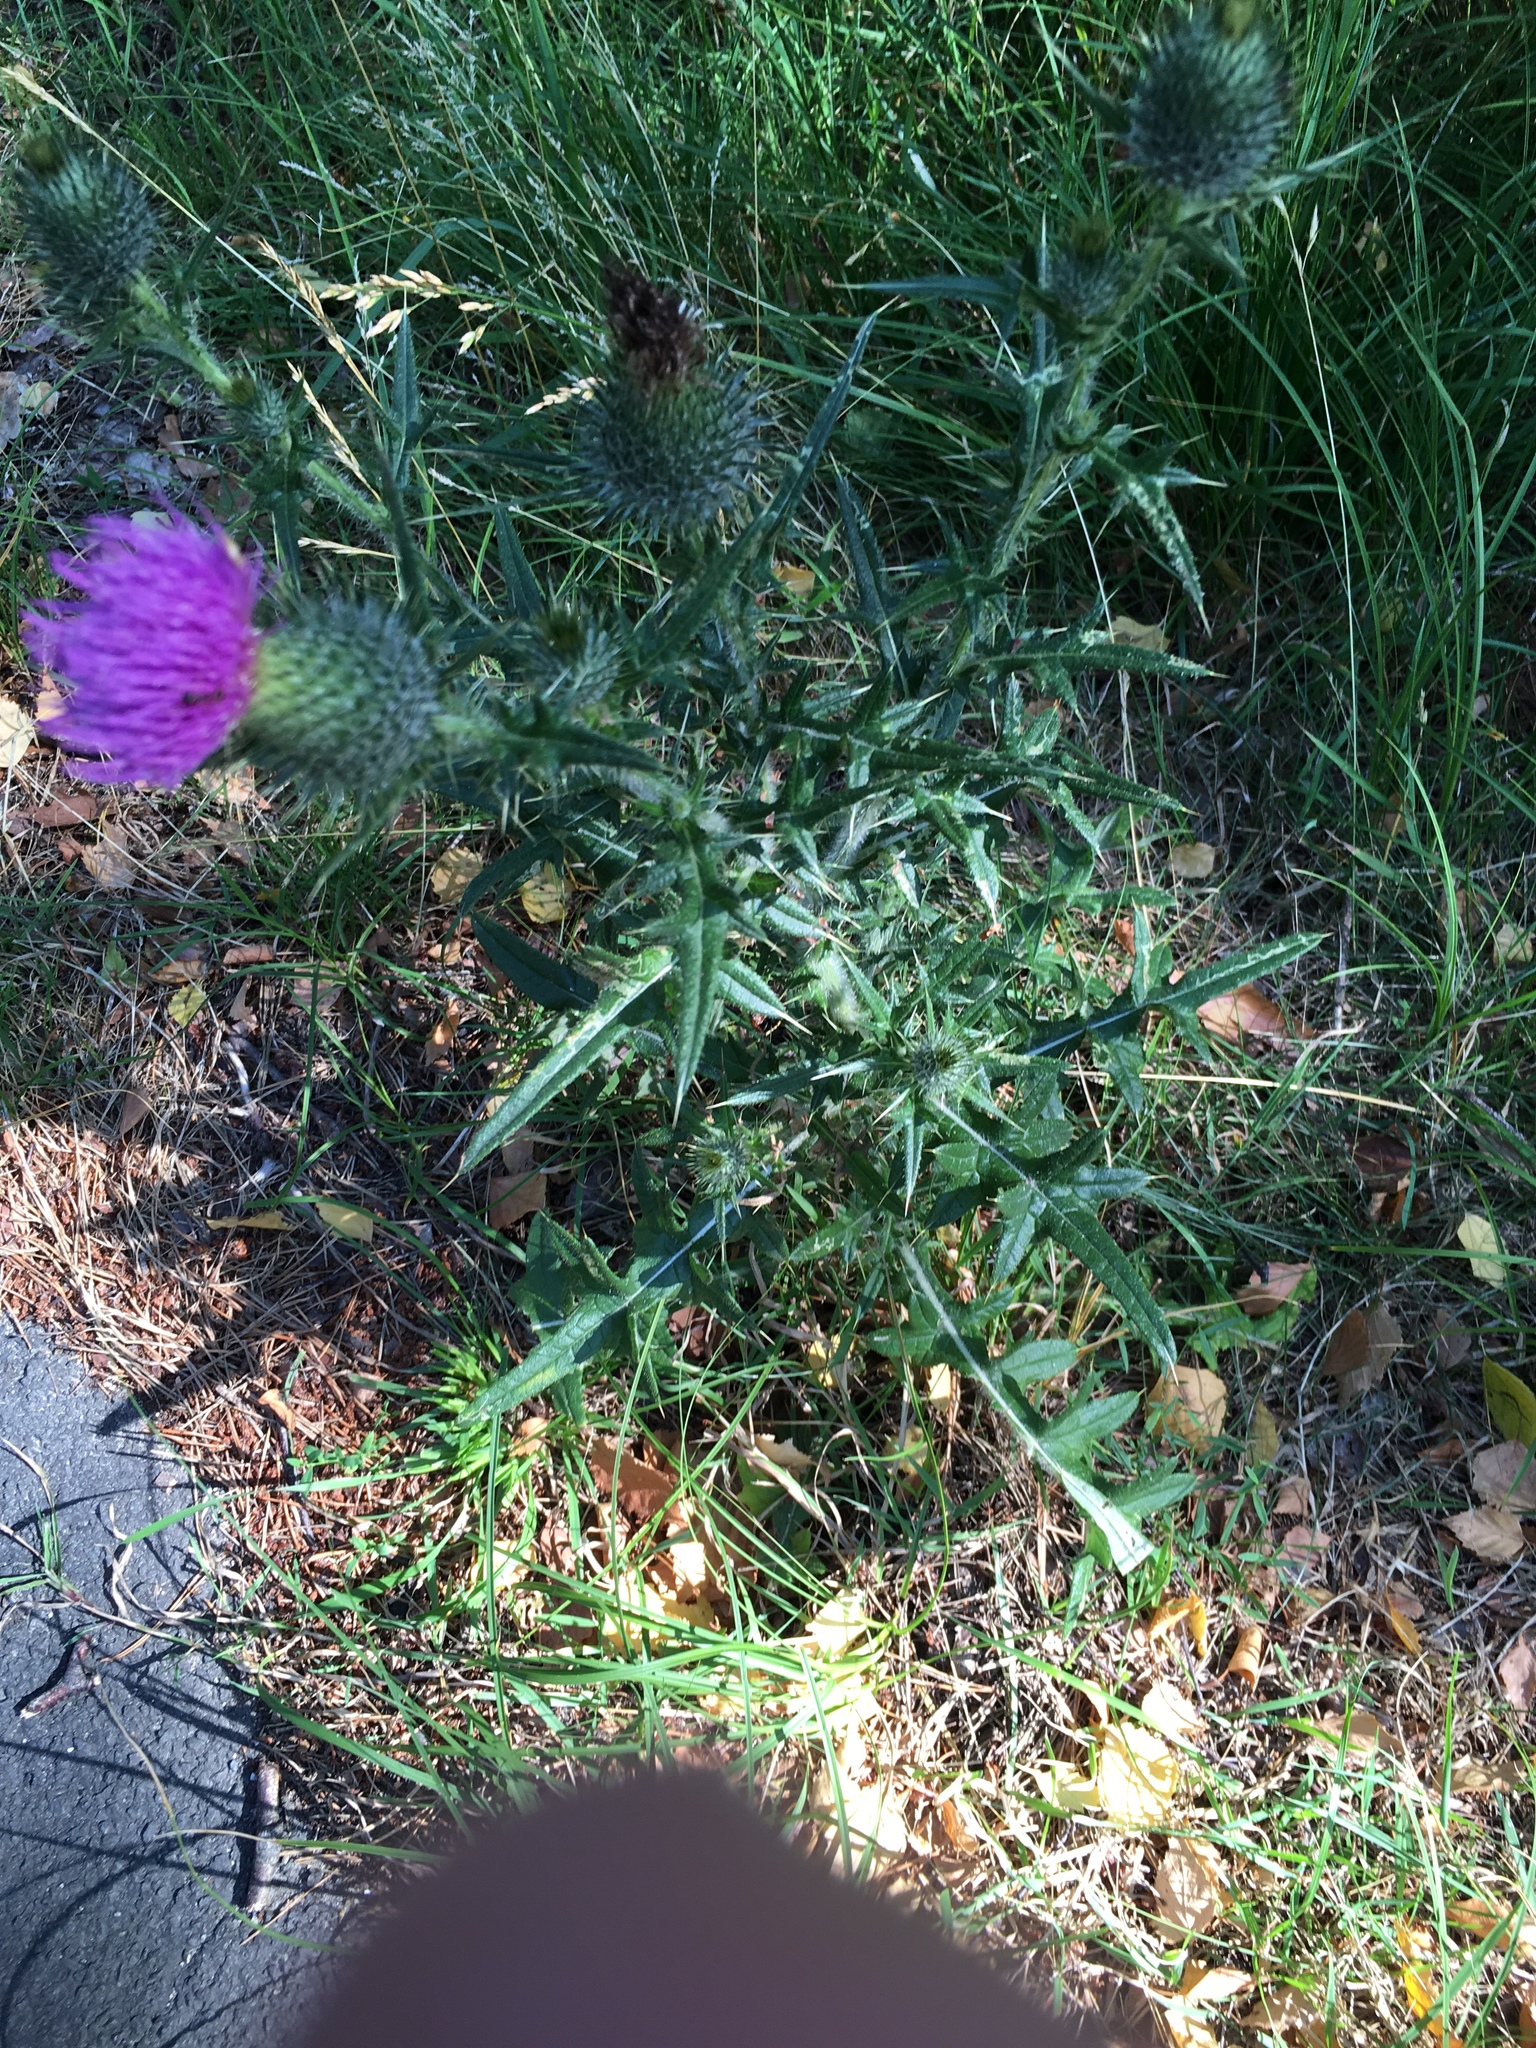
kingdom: Plantae
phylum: Tracheophyta
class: Magnoliopsida
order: Asterales
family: Asteraceae
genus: Cirsium
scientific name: Cirsium vulgare
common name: Bull thistle
